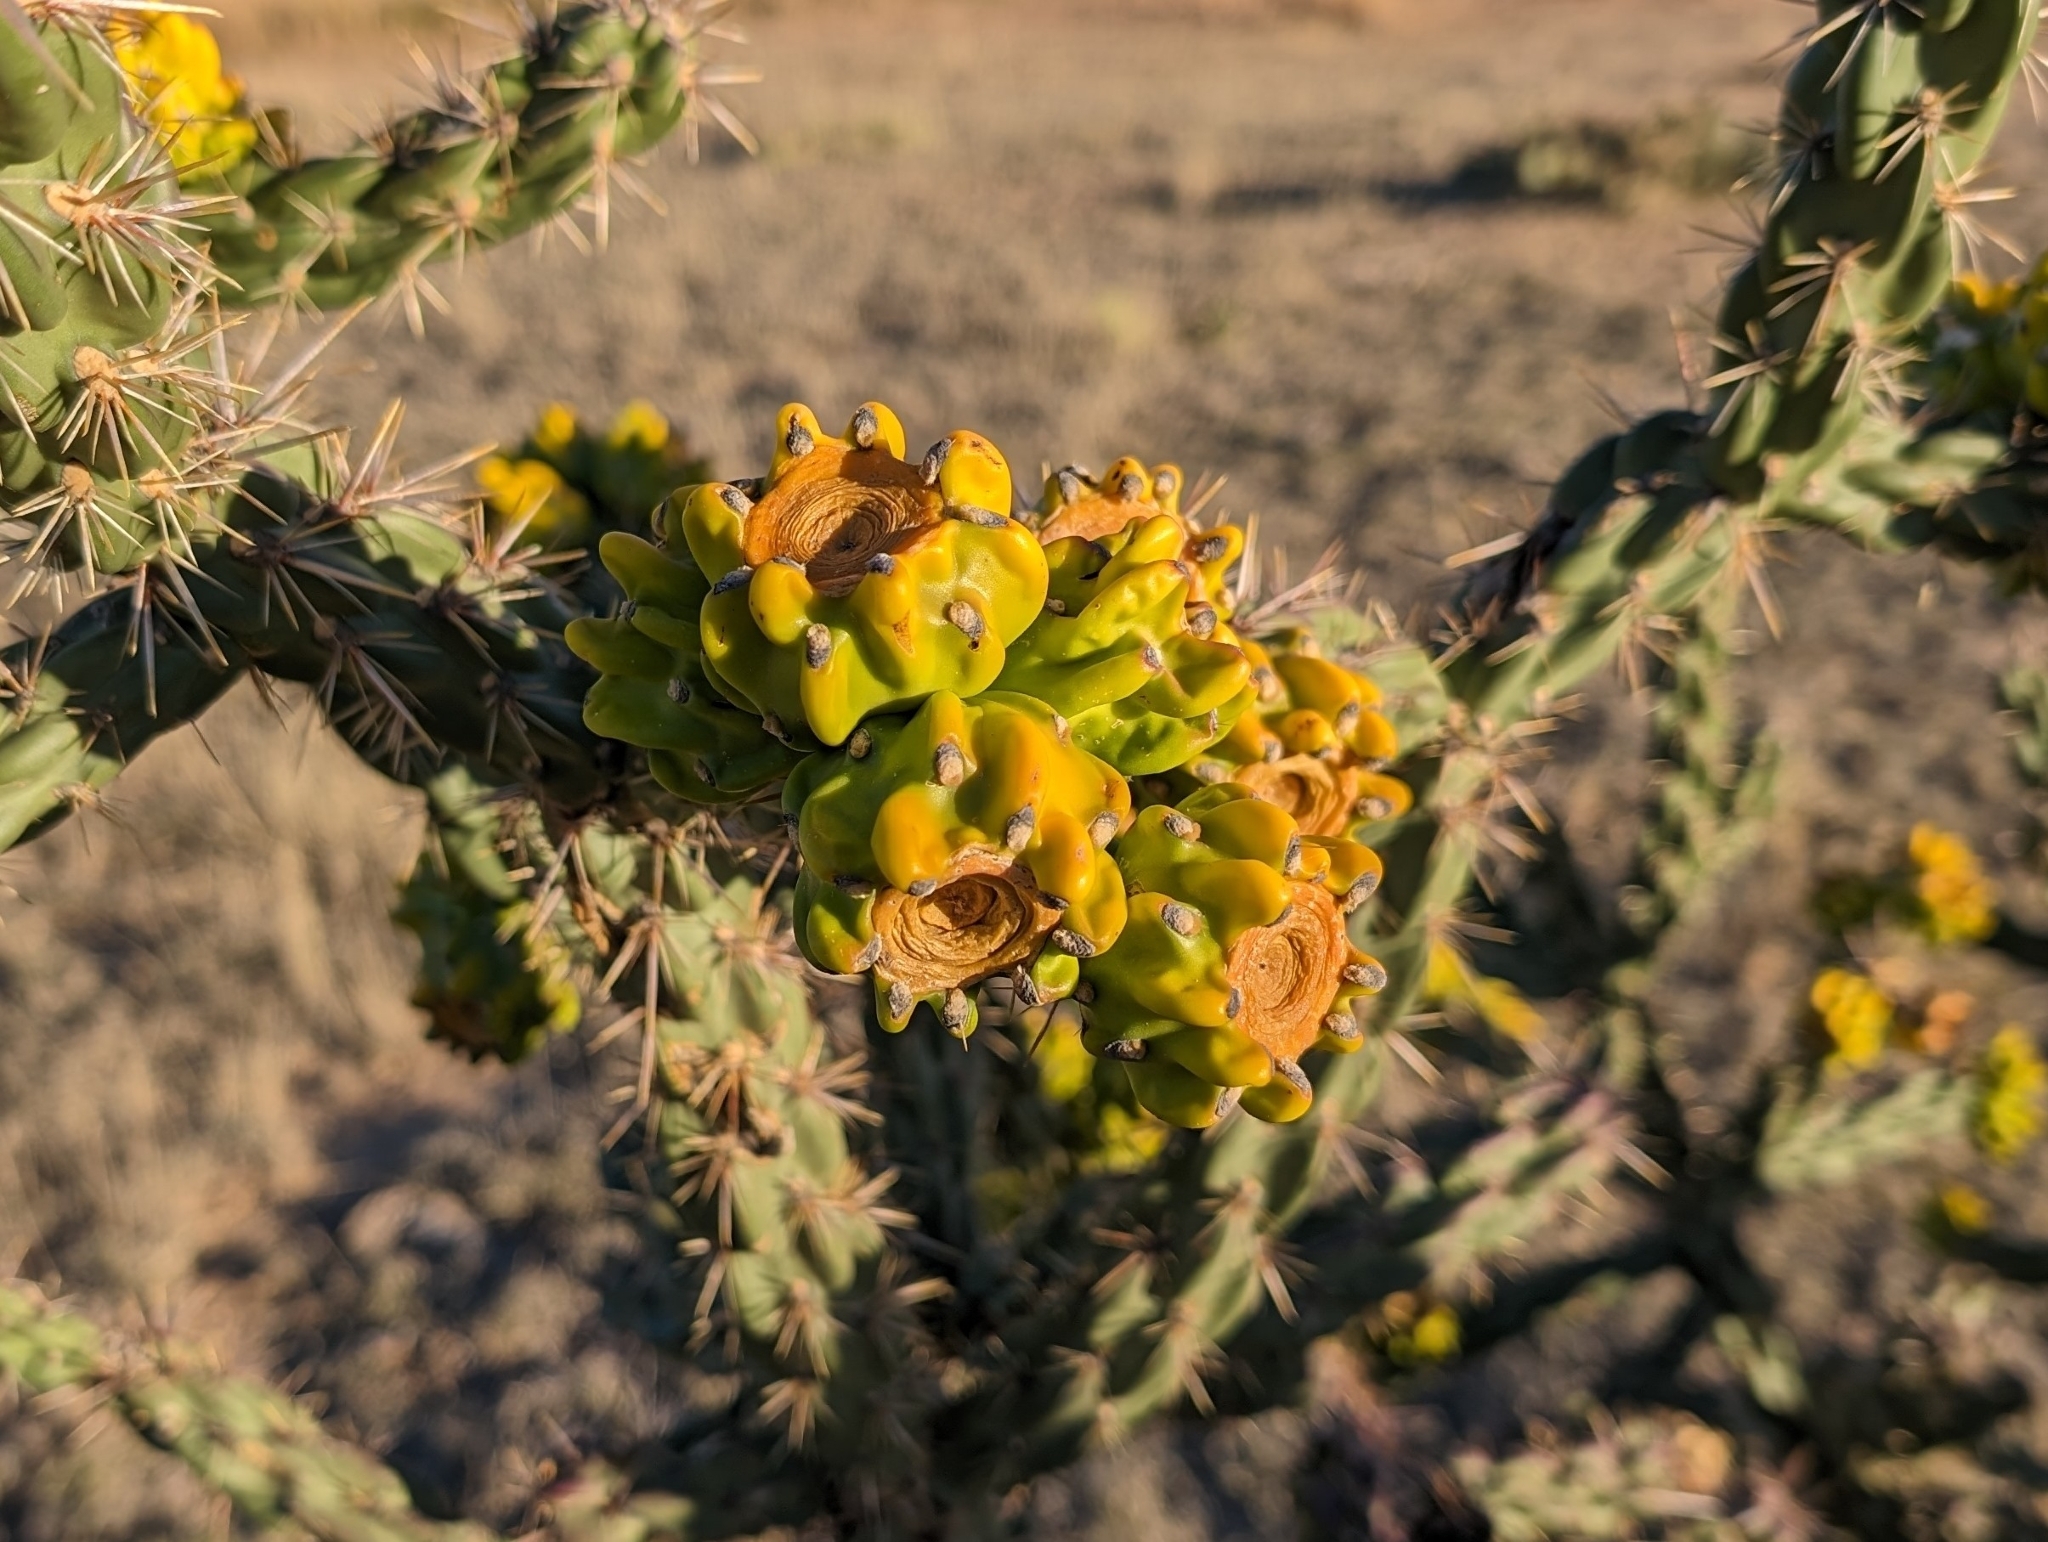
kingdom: Plantae
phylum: Tracheophyta
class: Magnoliopsida
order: Caryophyllales
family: Cactaceae
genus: Cylindropuntia
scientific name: Cylindropuntia imbricata
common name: Candelabrum cactus
